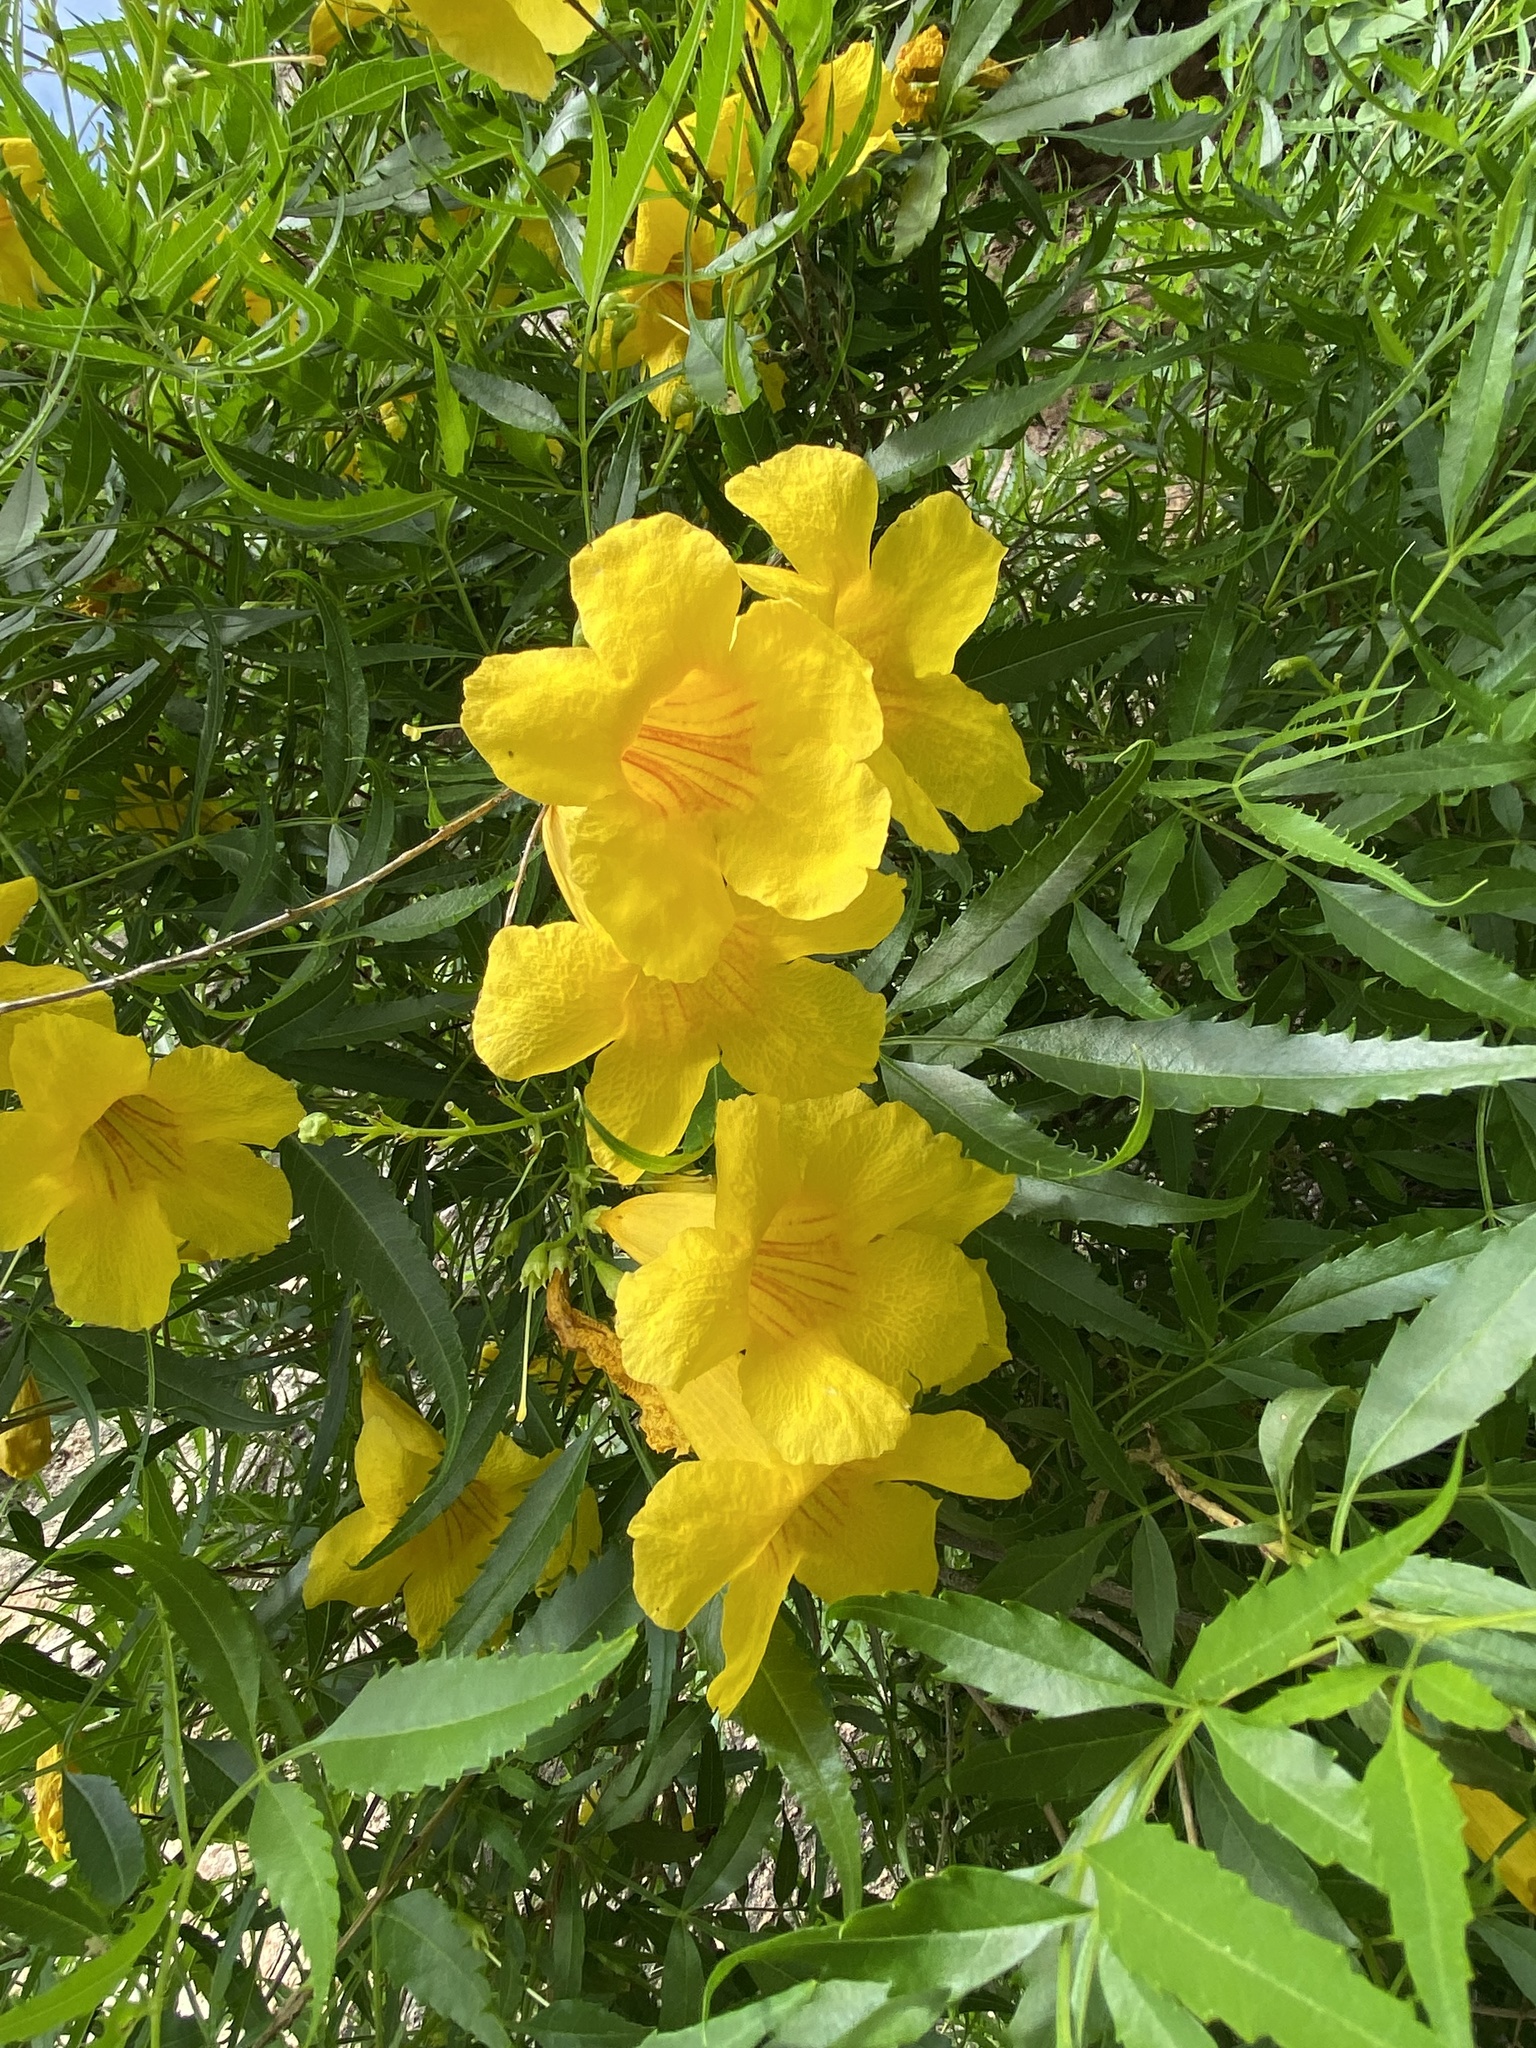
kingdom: Plantae
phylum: Tracheophyta
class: Magnoliopsida
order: Lamiales
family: Bignoniaceae
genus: Tecoma
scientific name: Tecoma stans
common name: Yellow trumpetbush
